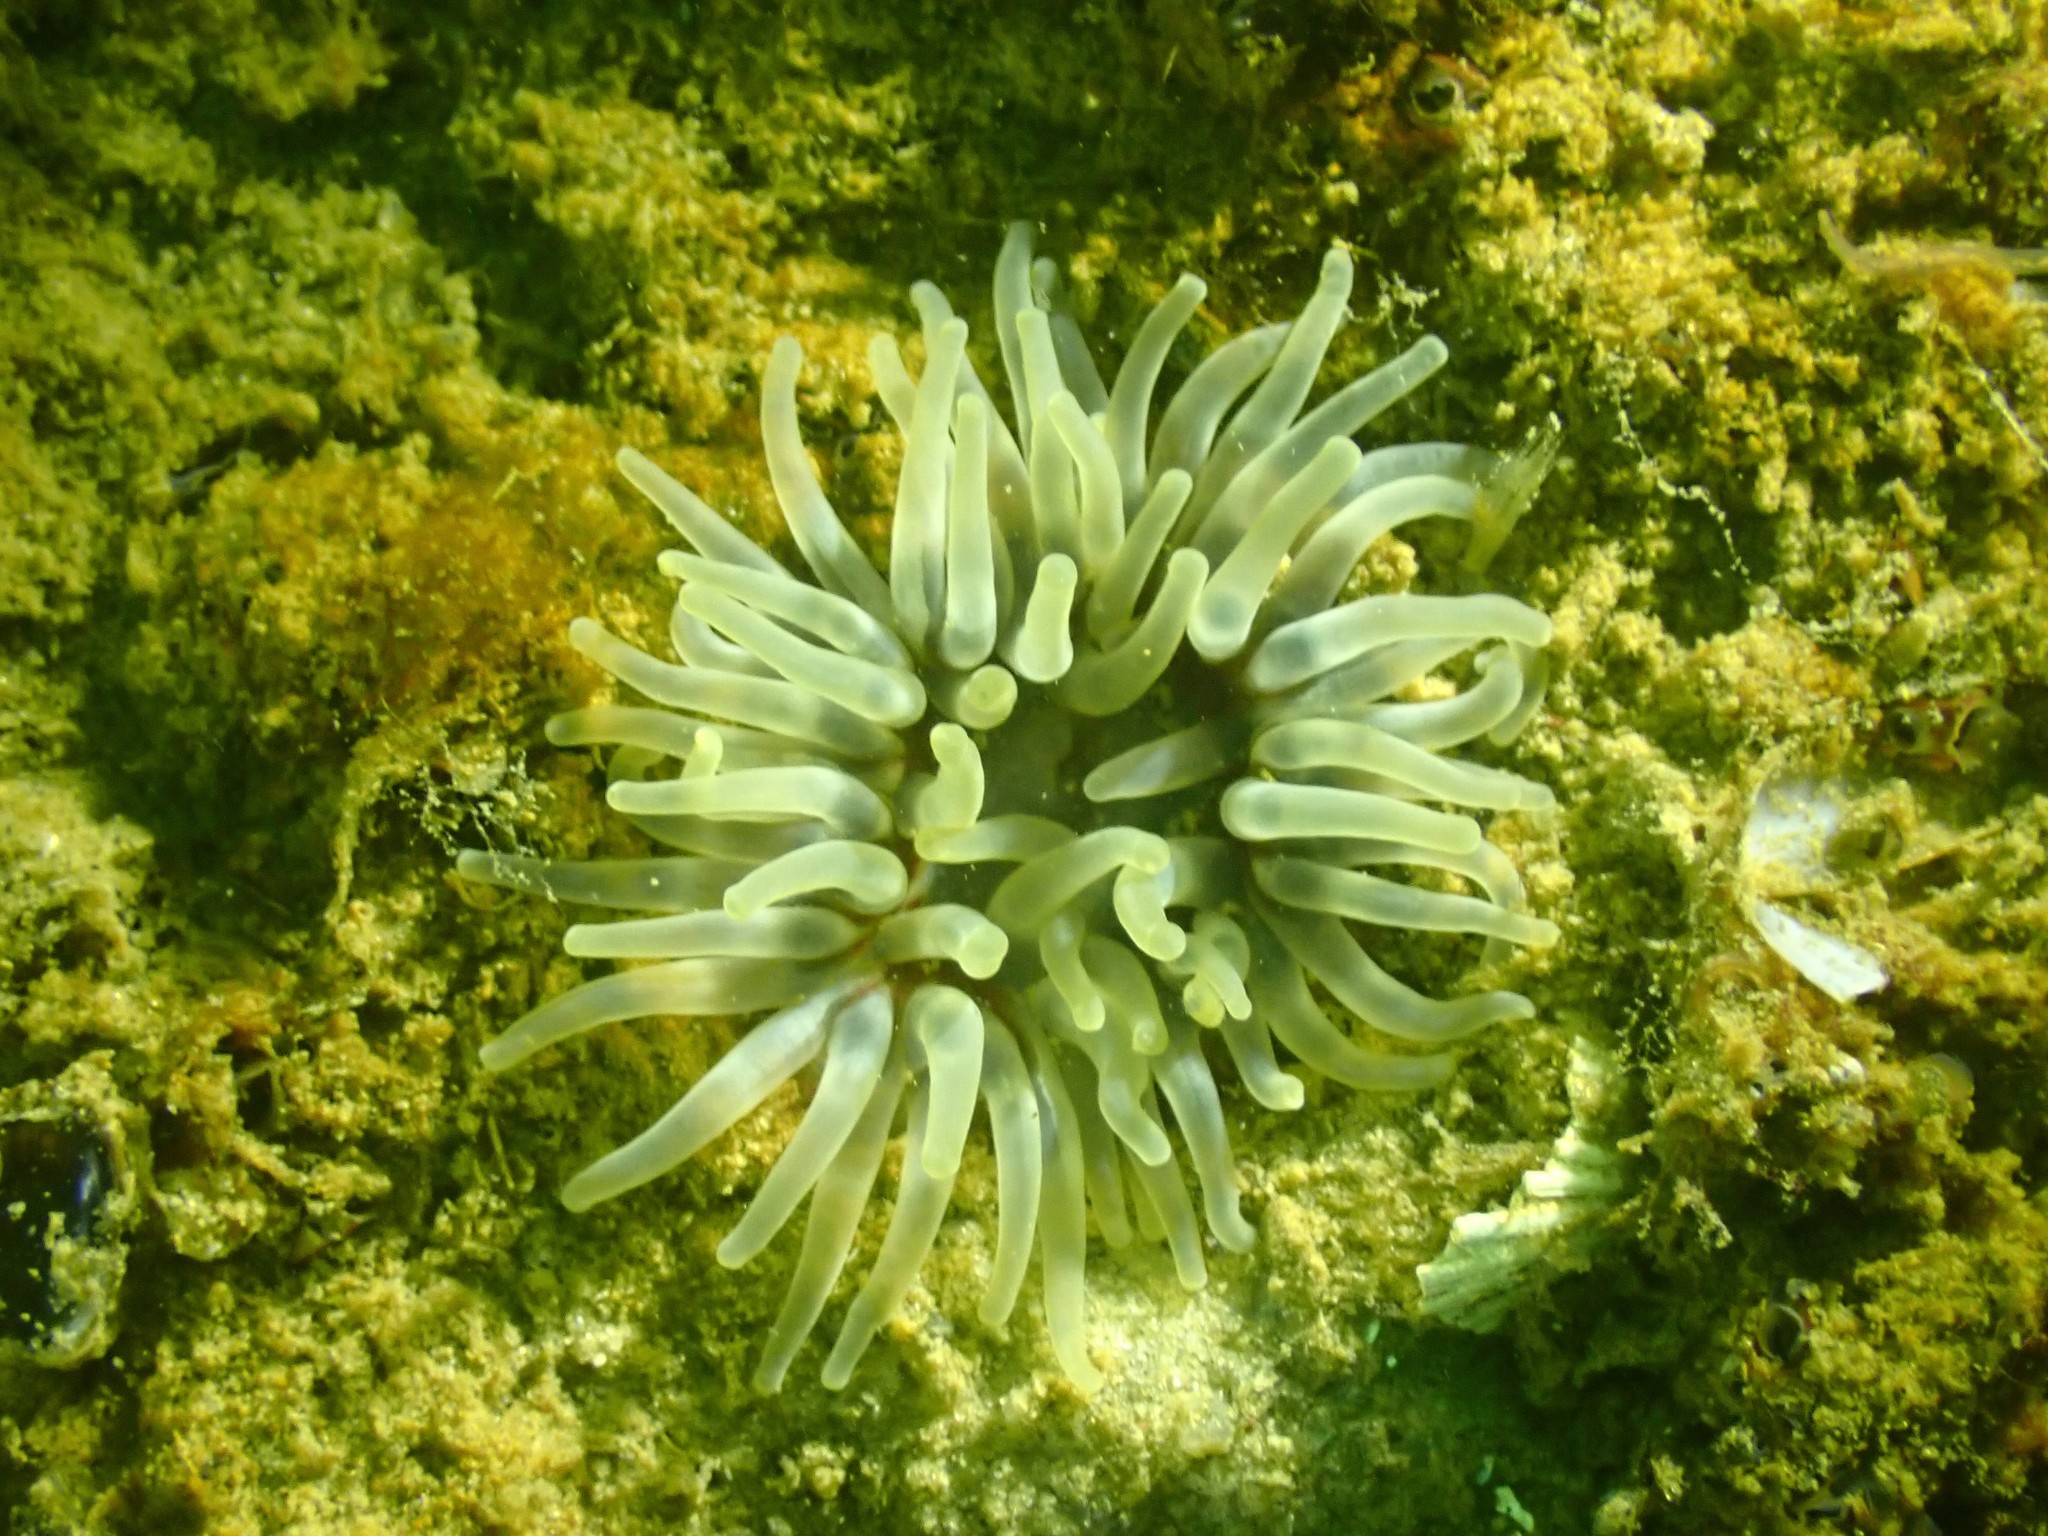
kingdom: Animalia
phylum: Cnidaria
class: Anthozoa
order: Actiniaria
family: Actiniidae
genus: Urticina
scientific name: Urticina felina
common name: Dahlia anemone
